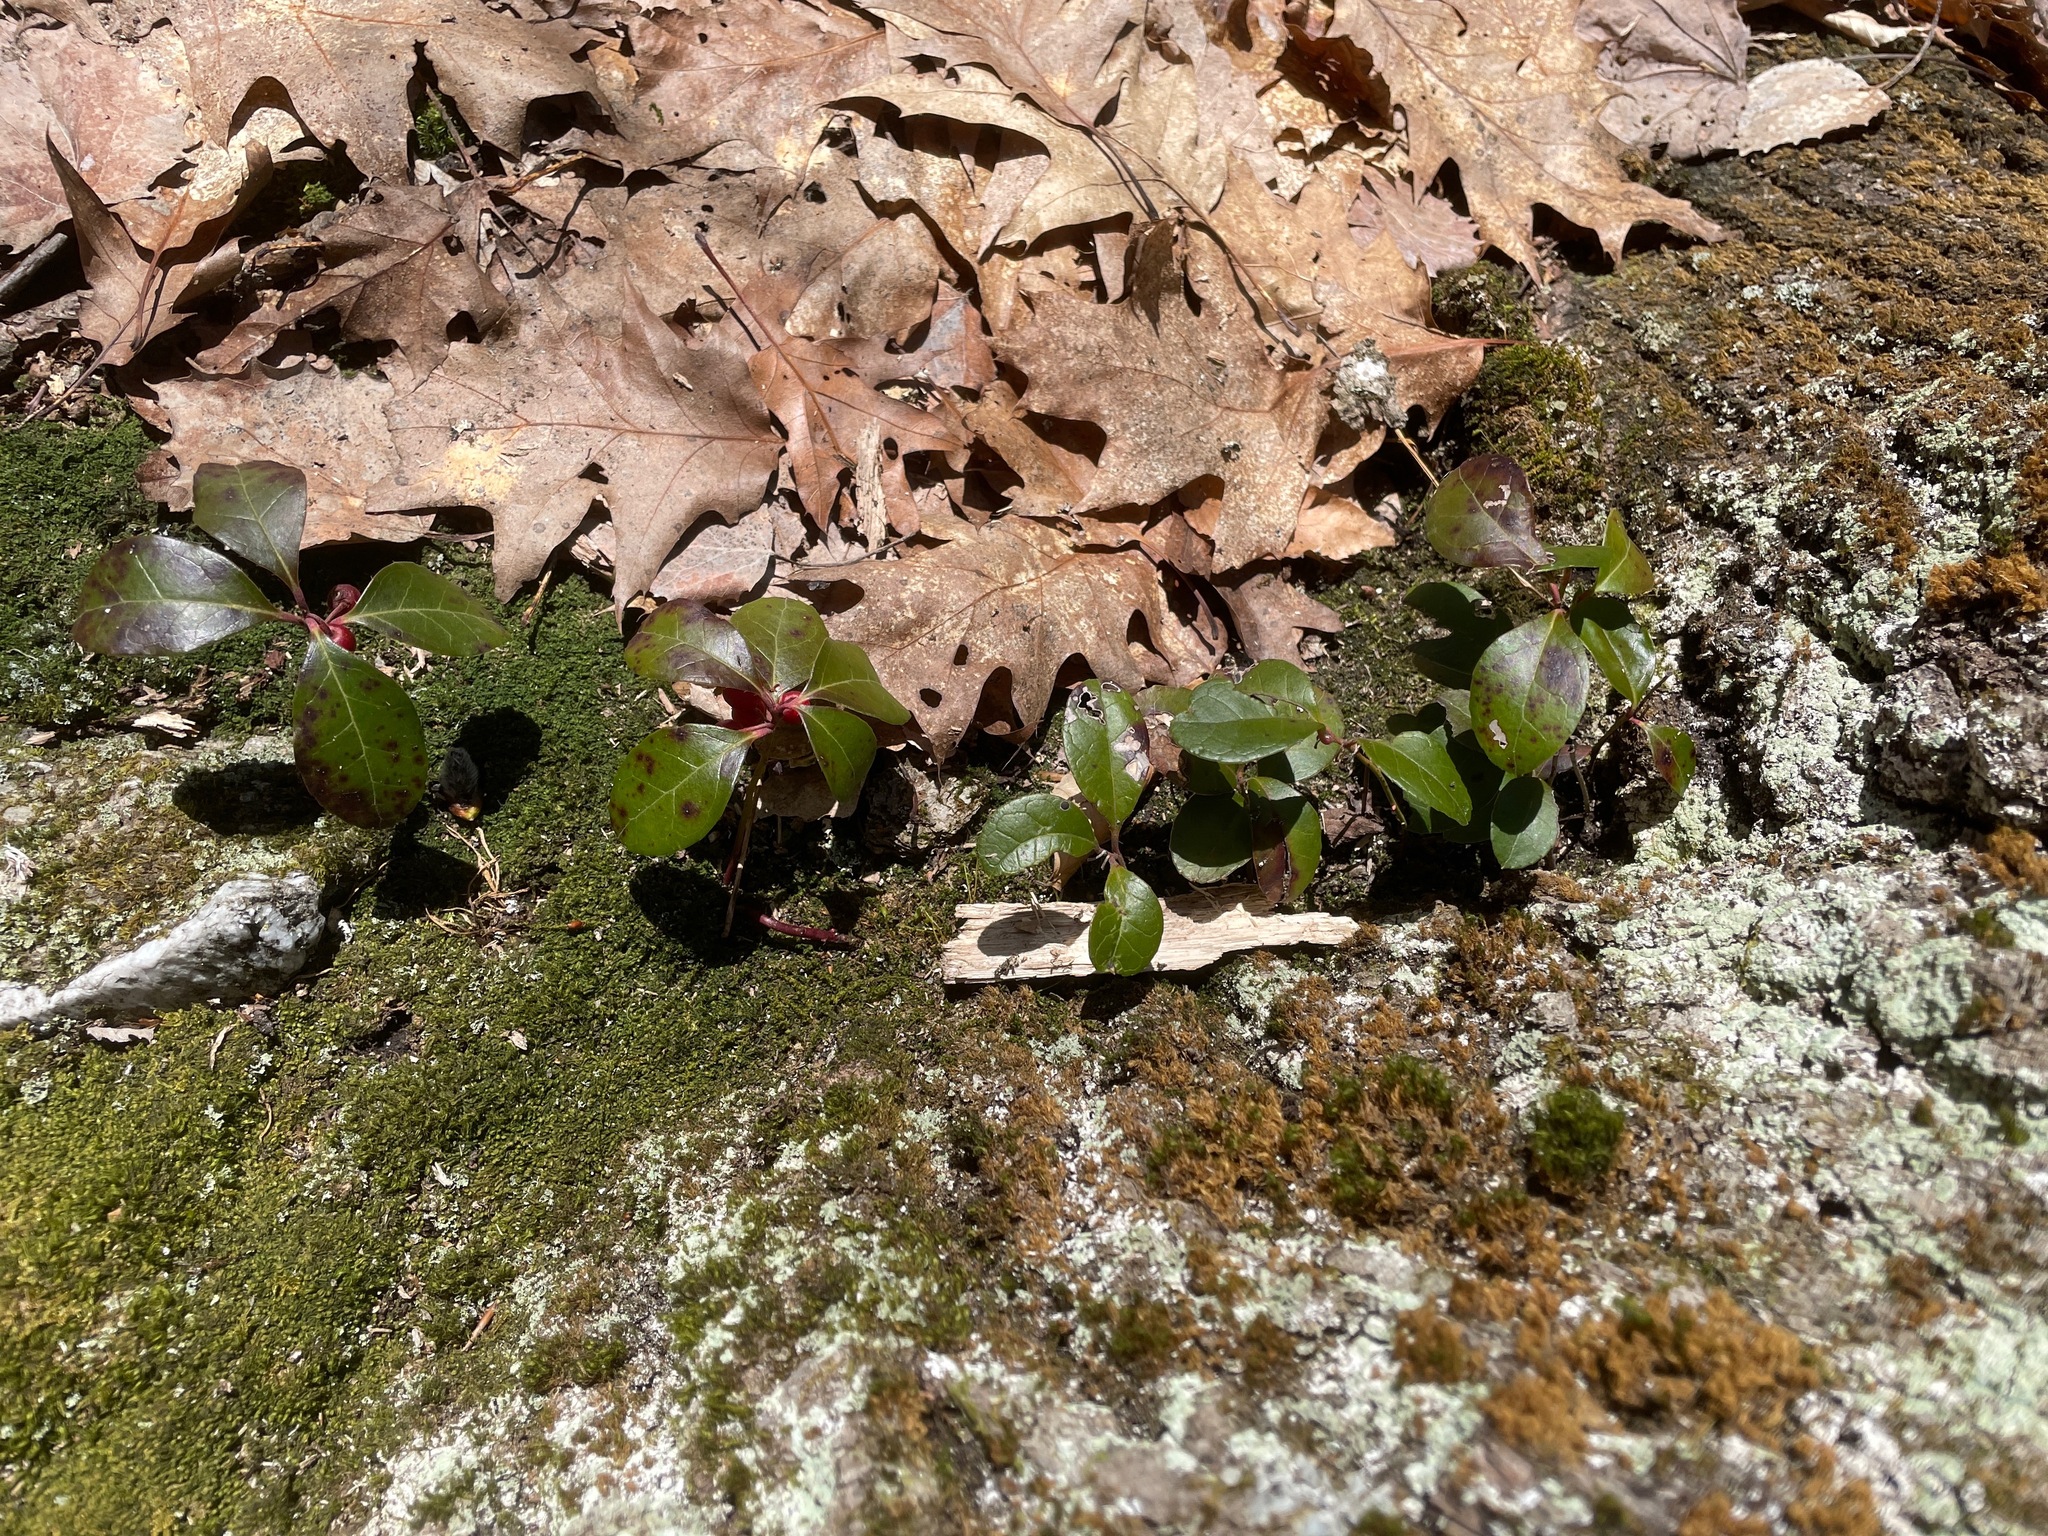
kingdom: Plantae
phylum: Tracheophyta
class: Magnoliopsida
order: Ericales
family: Ericaceae
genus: Gaultheria
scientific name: Gaultheria procumbens
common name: Checkerberry
